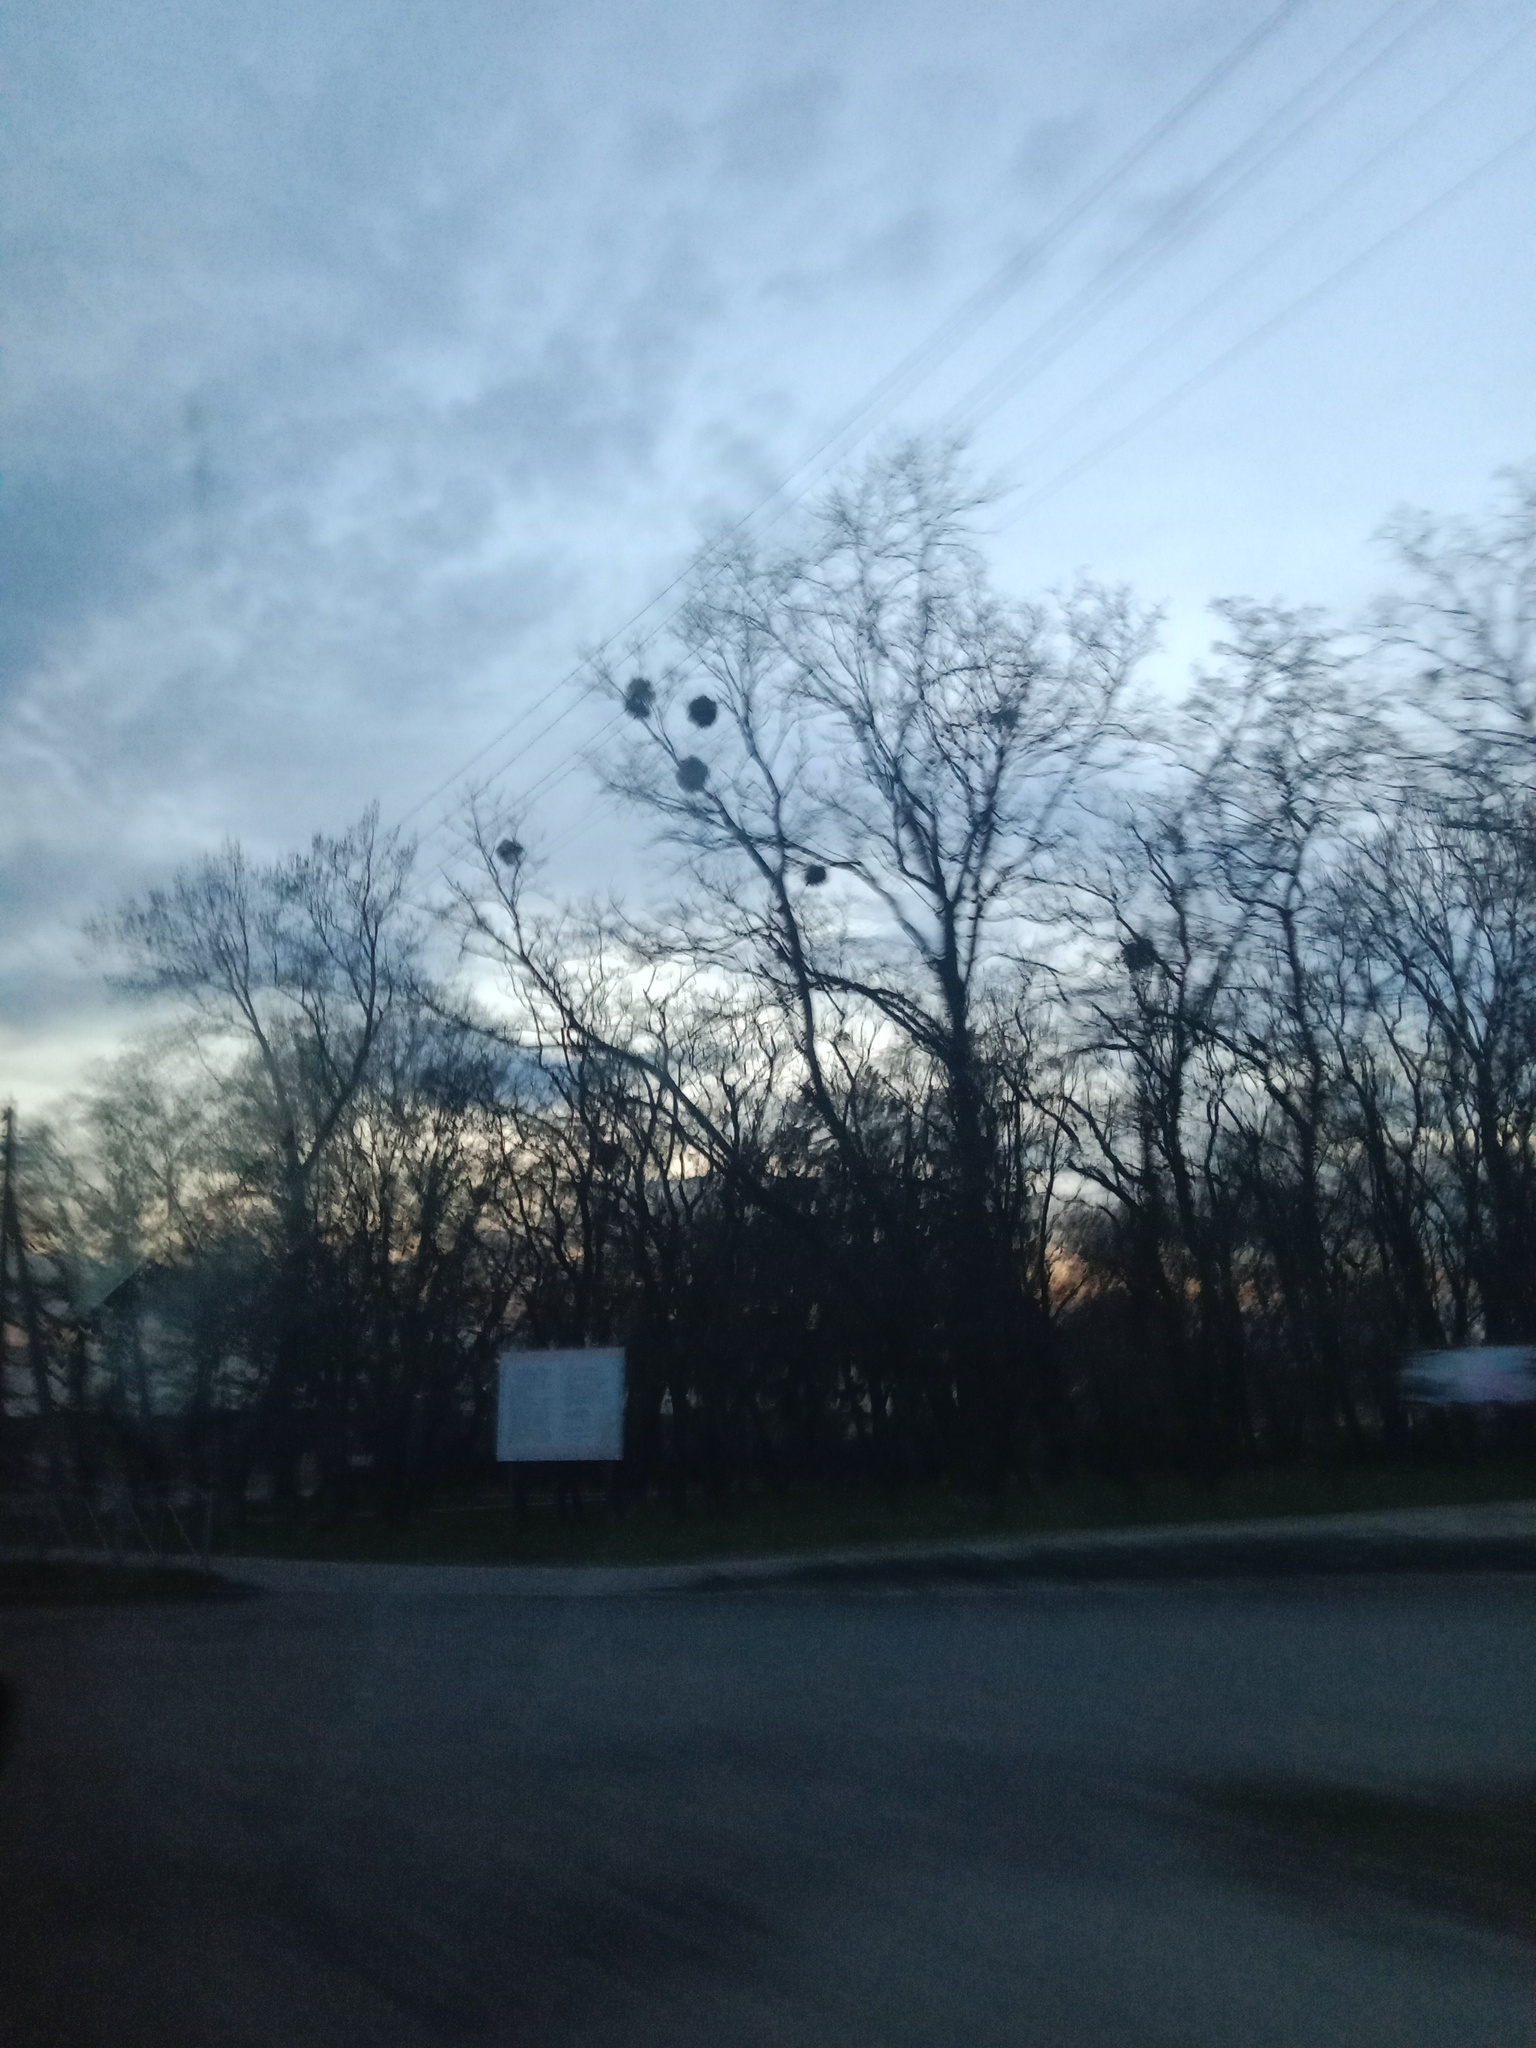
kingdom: Plantae
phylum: Tracheophyta
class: Magnoliopsida
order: Santalales
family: Viscaceae
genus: Viscum
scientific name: Viscum album
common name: Mistletoe
